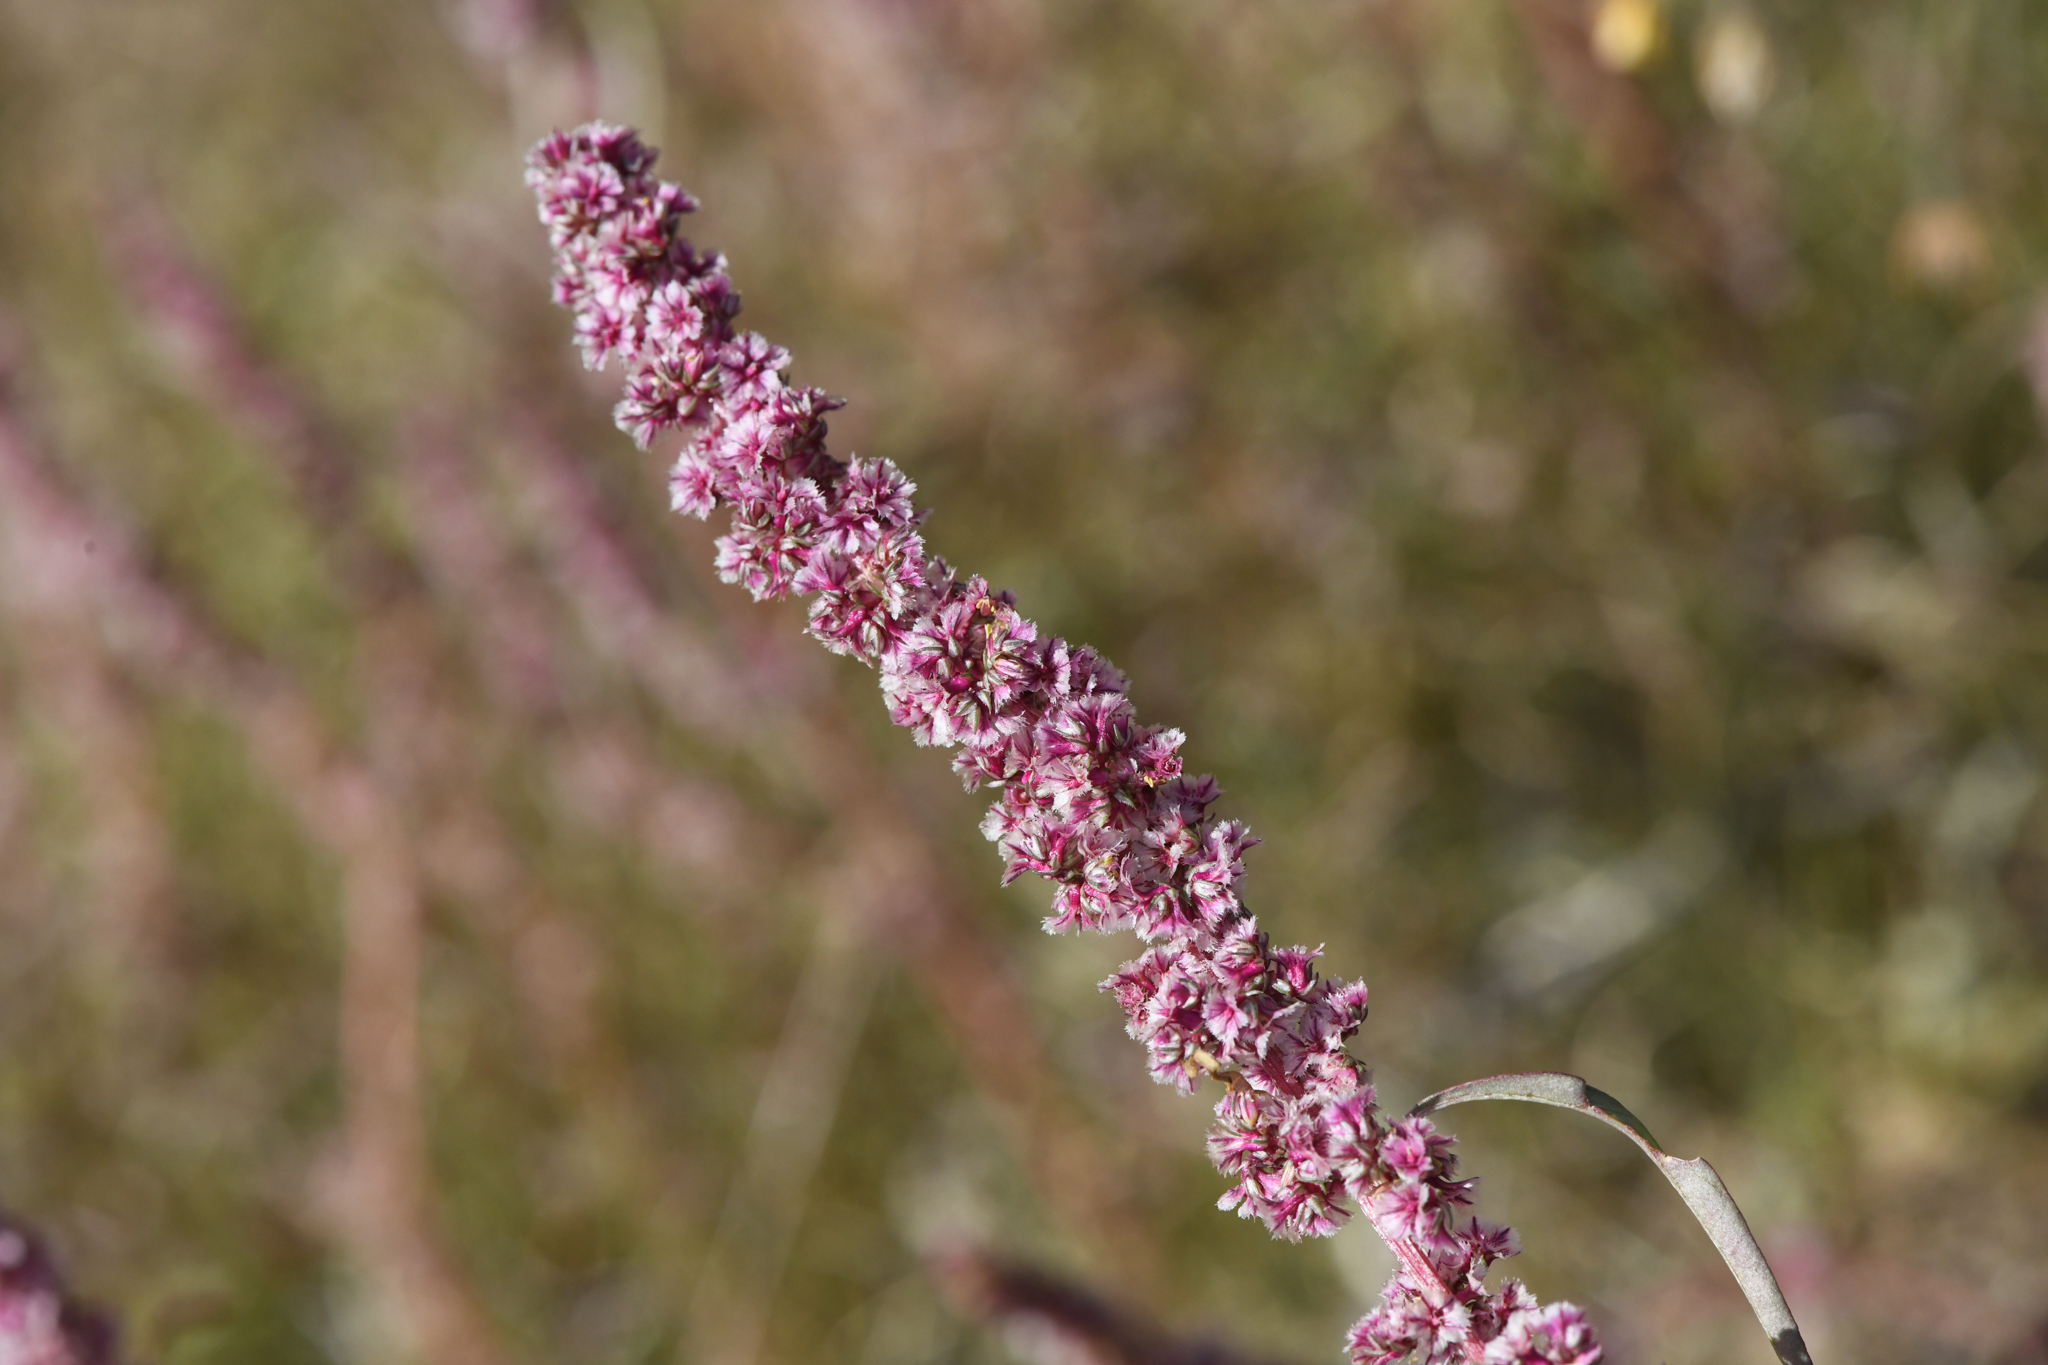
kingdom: Plantae
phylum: Tracheophyta
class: Magnoliopsida
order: Caryophyllales
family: Amaranthaceae
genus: Amaranthus
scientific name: Amaranthus fimbriatus
